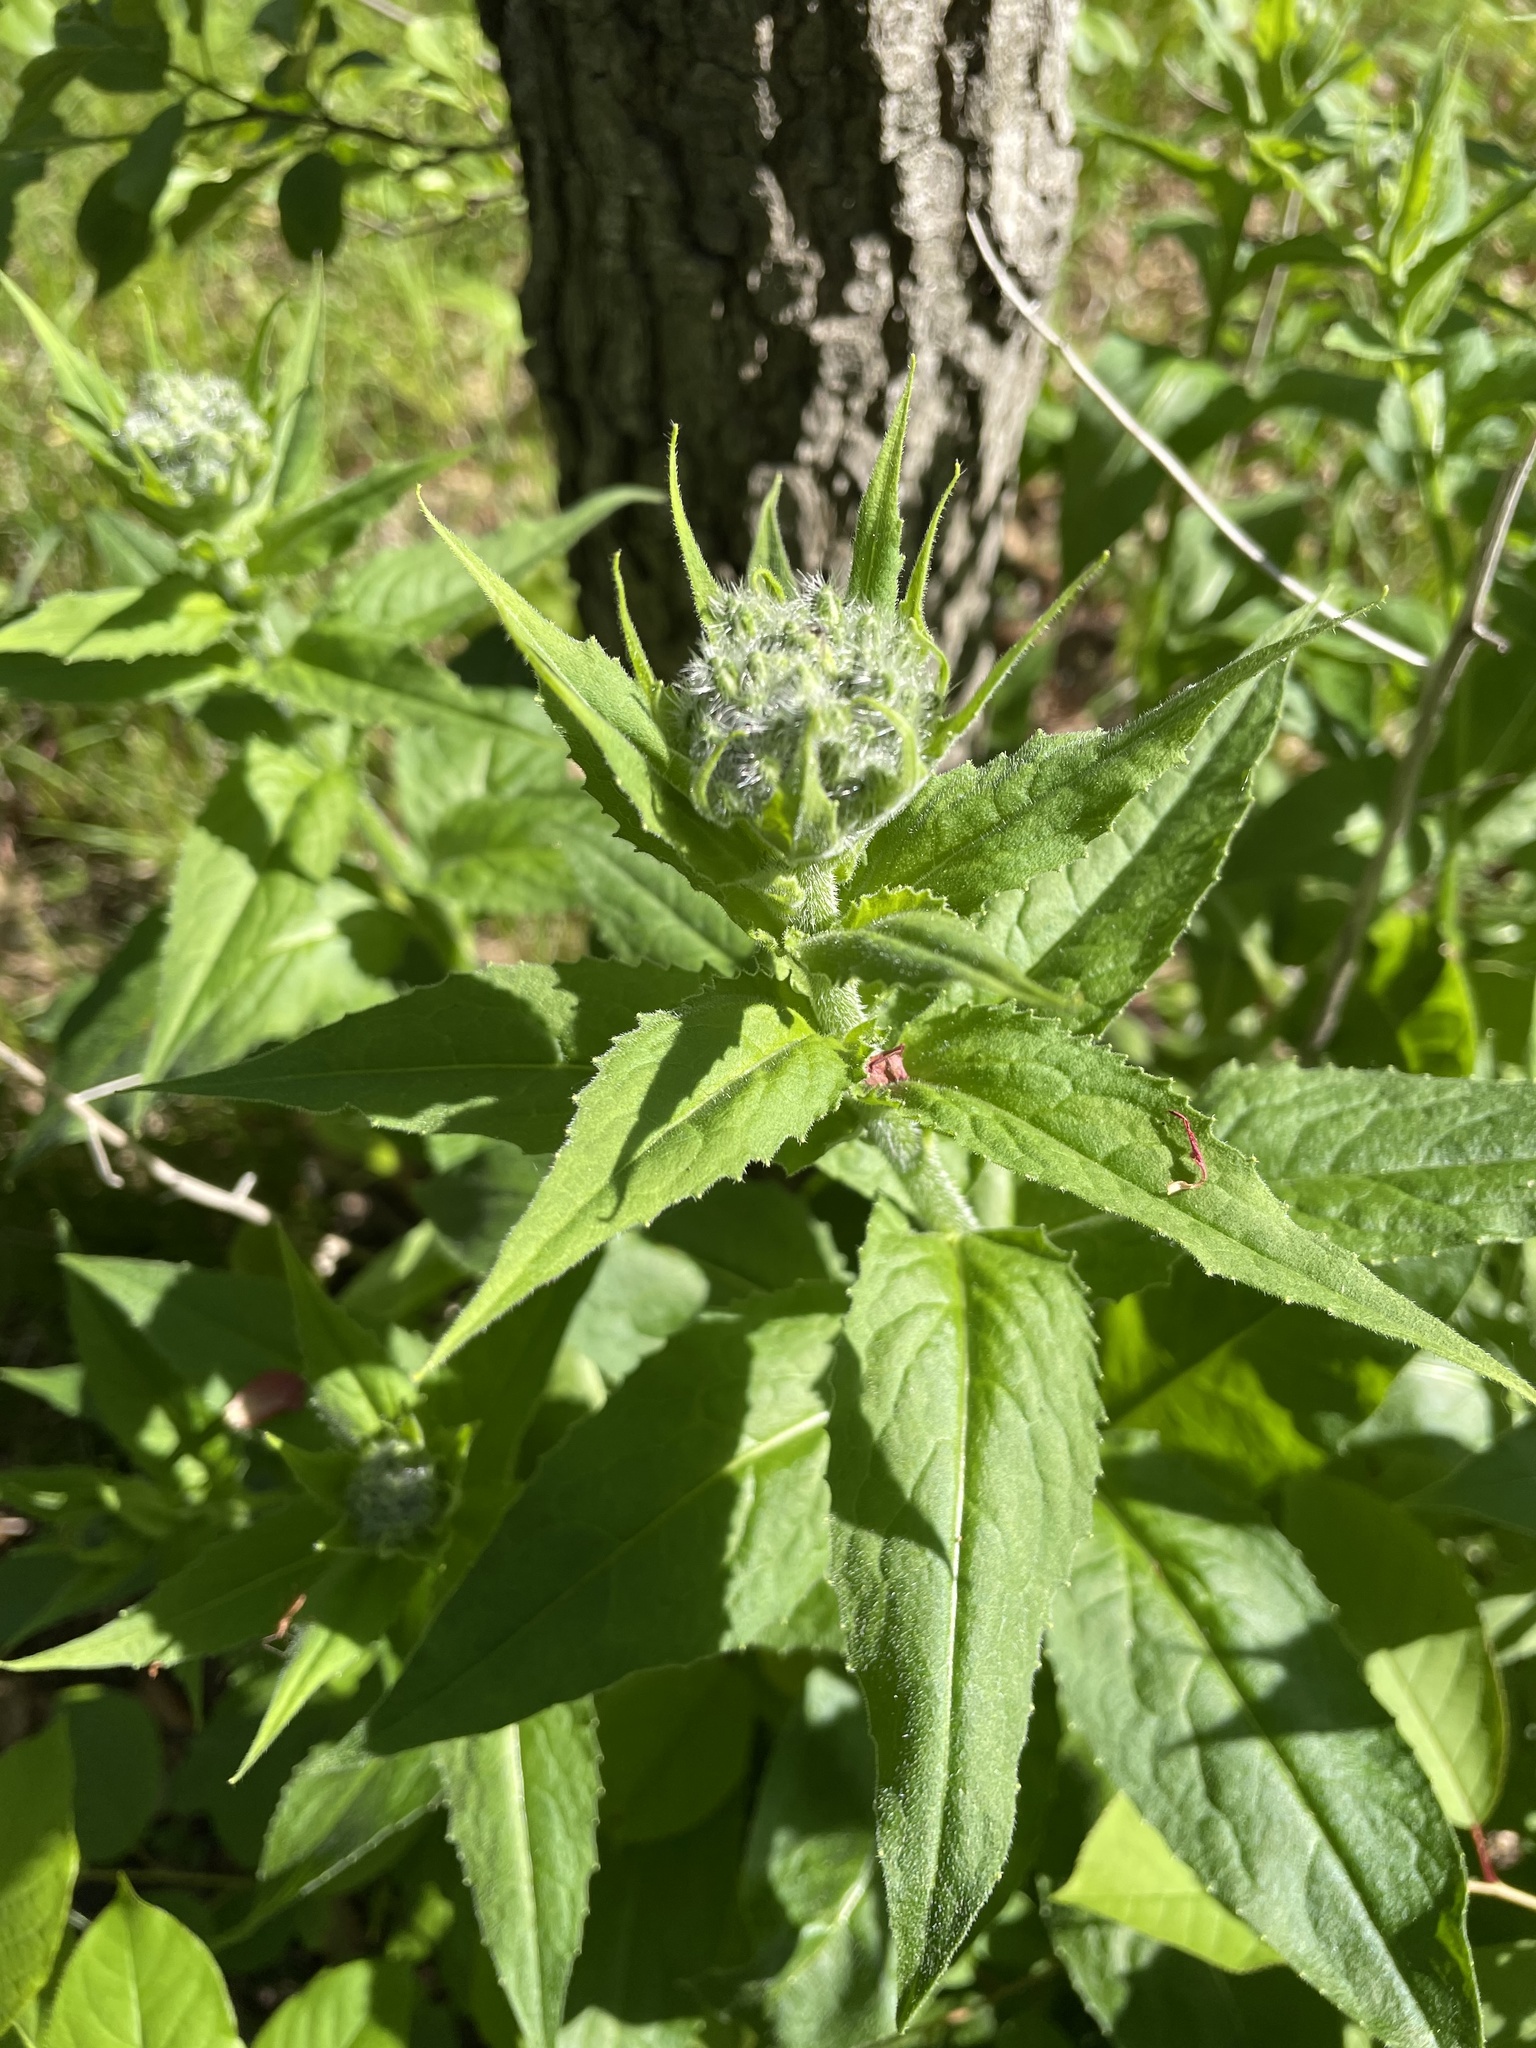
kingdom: Plantae
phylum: Tracheophyta
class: Magnoliopsida
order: Brassicales
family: Brassicaceae
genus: Hesperis
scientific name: Hesperis matronalis
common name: Dame's-violet
